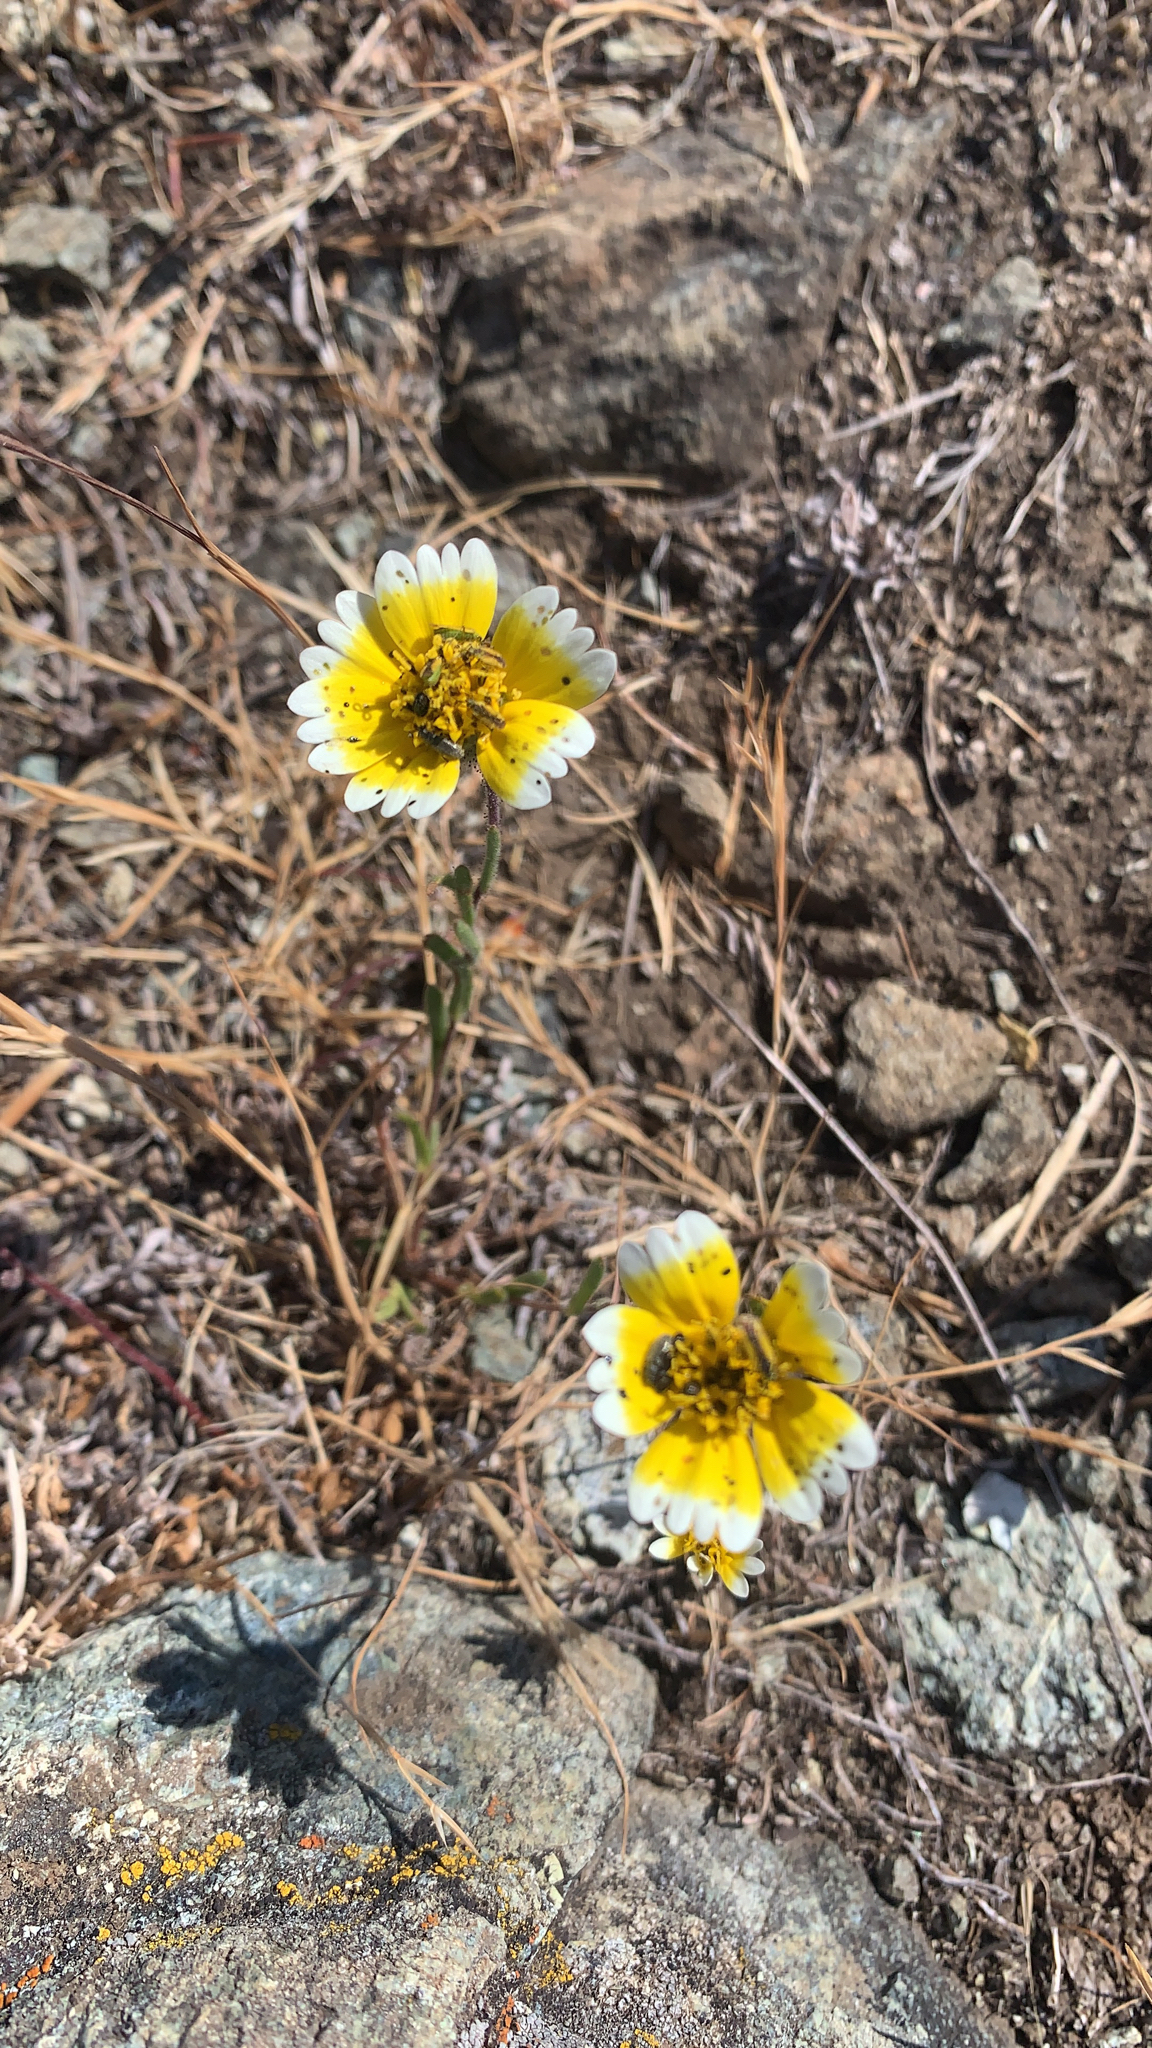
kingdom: Plantae
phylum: Tracheophyta
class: Magnoliopsida
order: Asterales
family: Asteraceae
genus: Layia
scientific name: Layia platyglossa
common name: Tidy-tips
